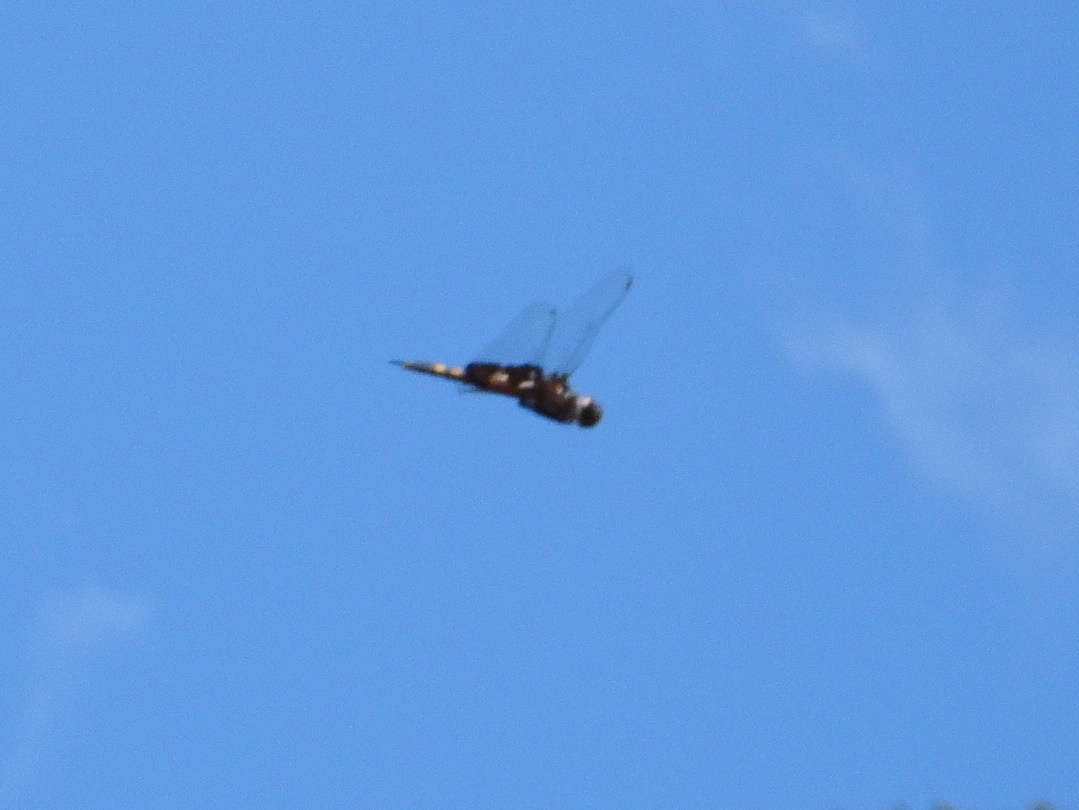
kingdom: Animalia
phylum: Arthropoda
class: Insecta
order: Odonata
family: Libellulidae
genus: Tramea
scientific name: Tramea lacerata
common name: Black saddlebags
